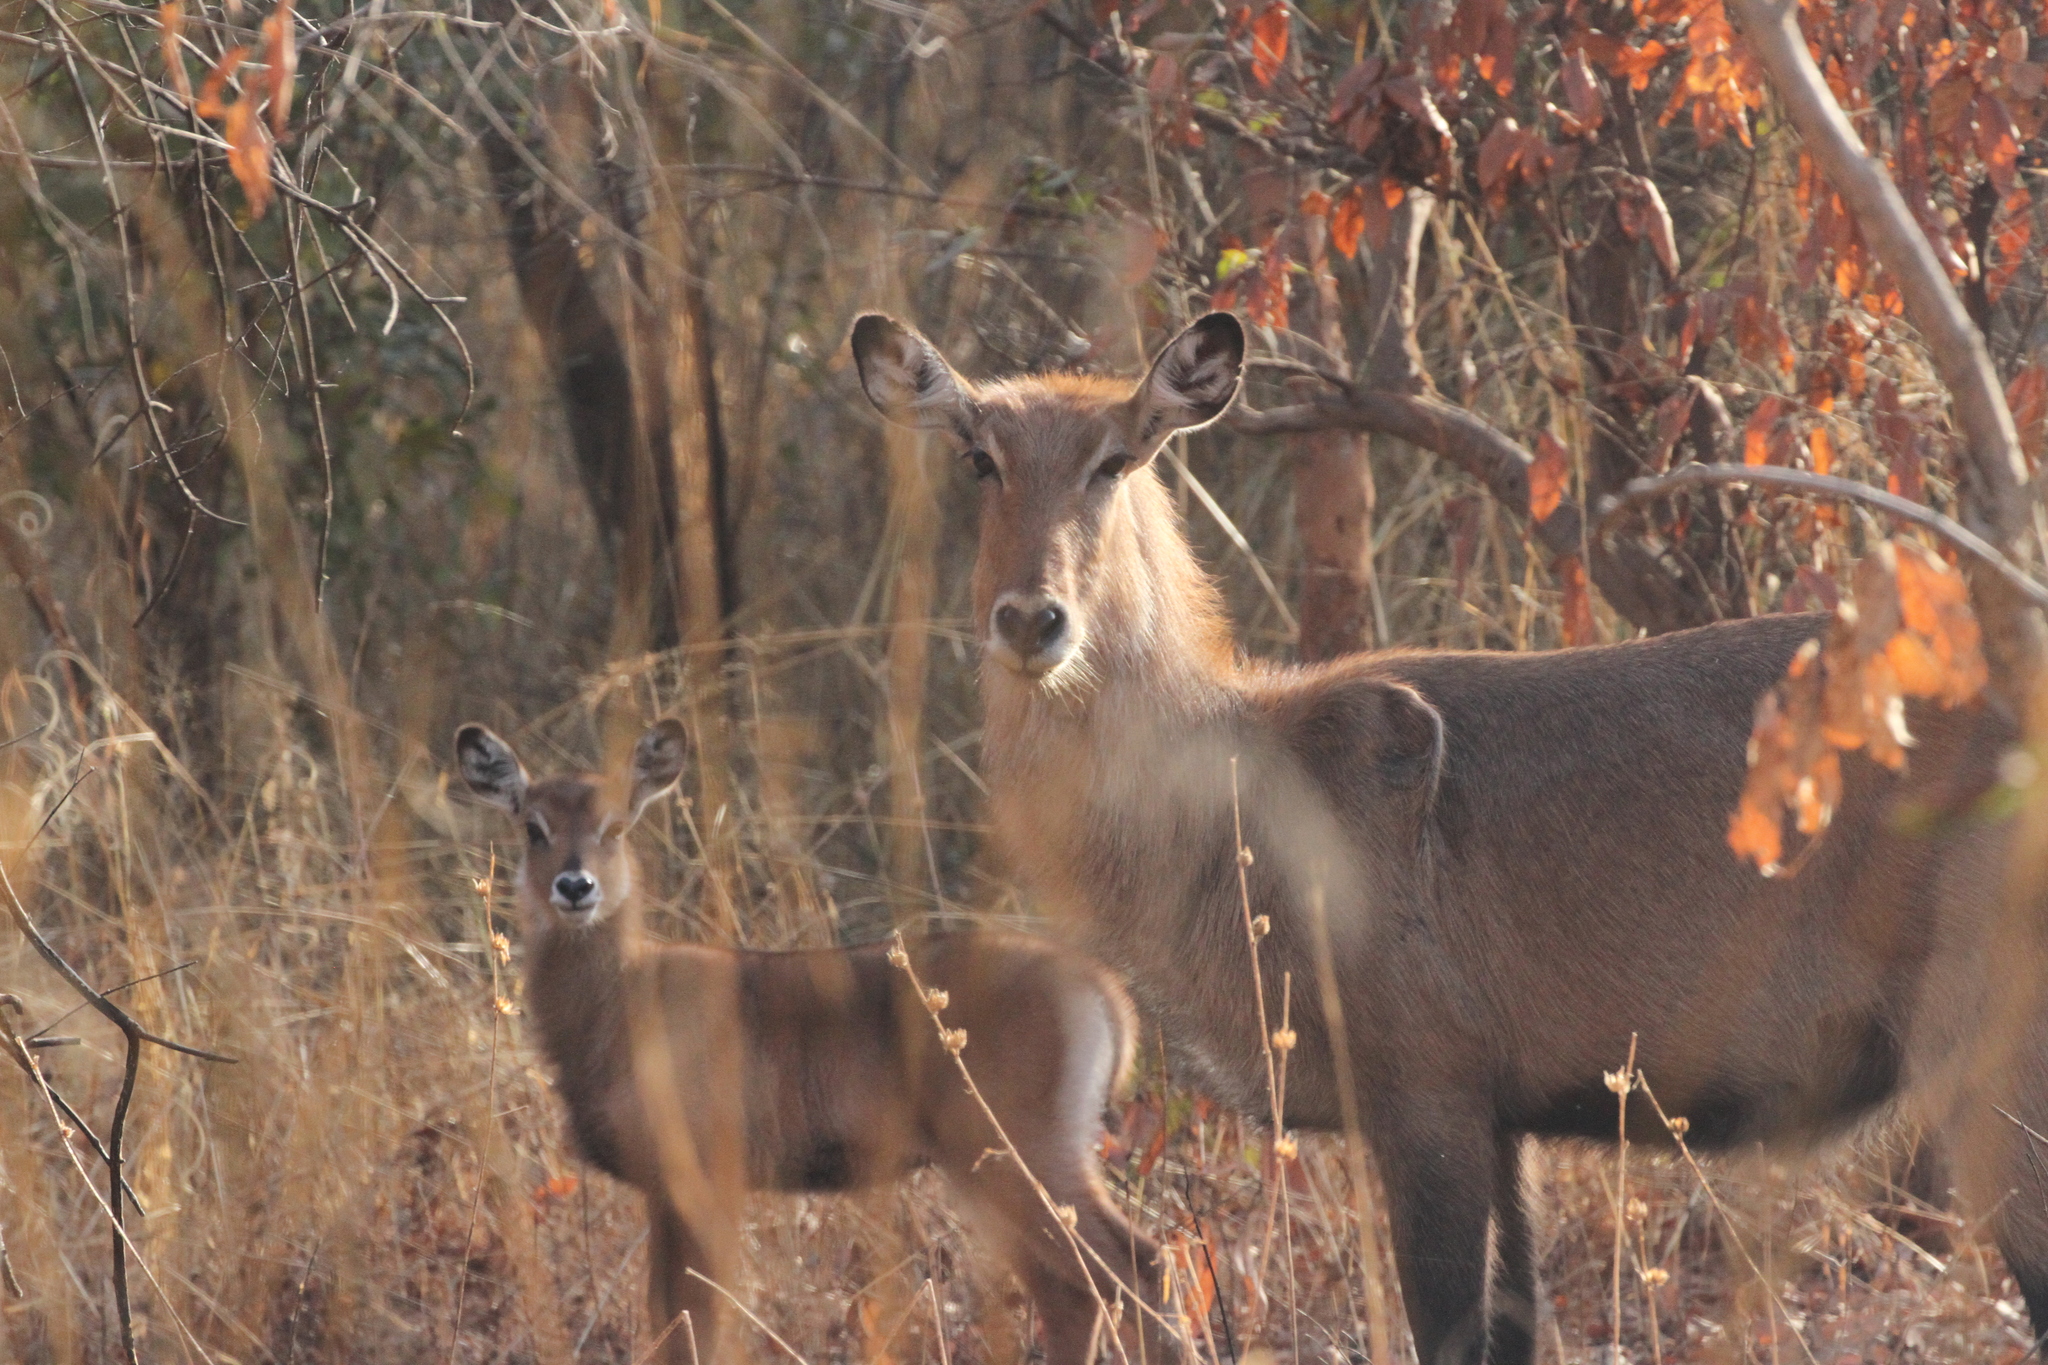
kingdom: Animalia
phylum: Chordata
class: Mammalia
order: Artiodactyla
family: Bovidae
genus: Kobus
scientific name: Kobus ellipsiprymnus
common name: Waterbuck
